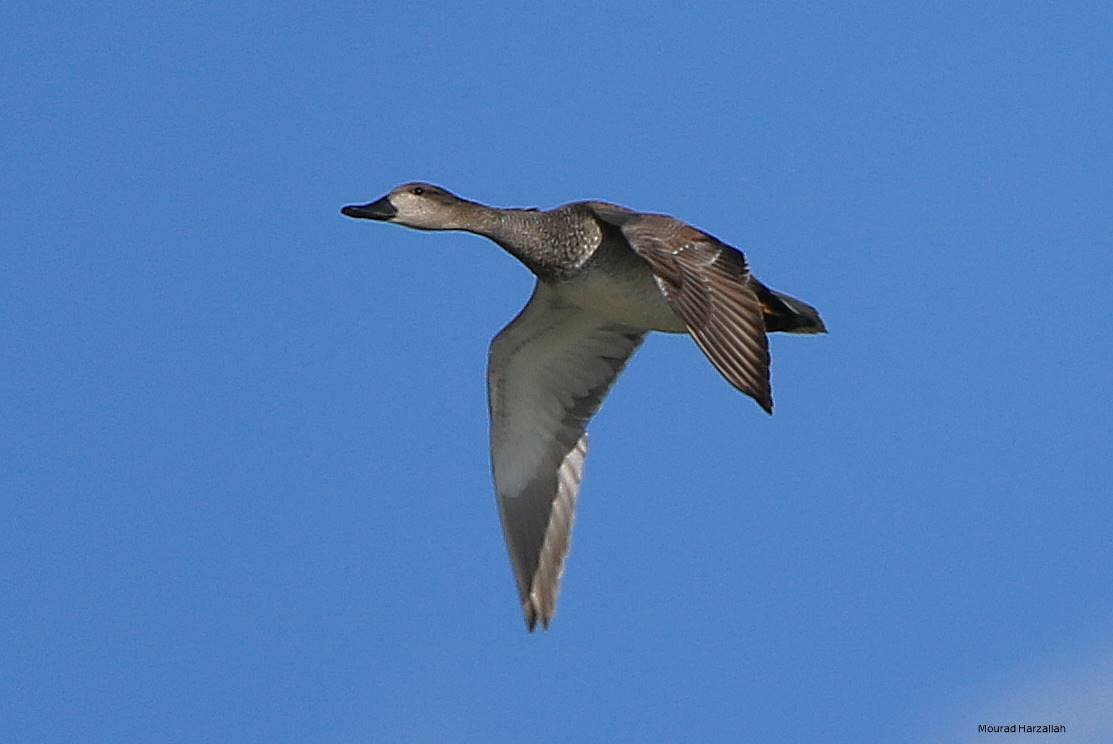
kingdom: Animalia
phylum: Chordata
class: Aves
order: Anseriformes
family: Anatidae
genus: Mareca
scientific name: Mareca penelope
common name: Eurasian wigeon
